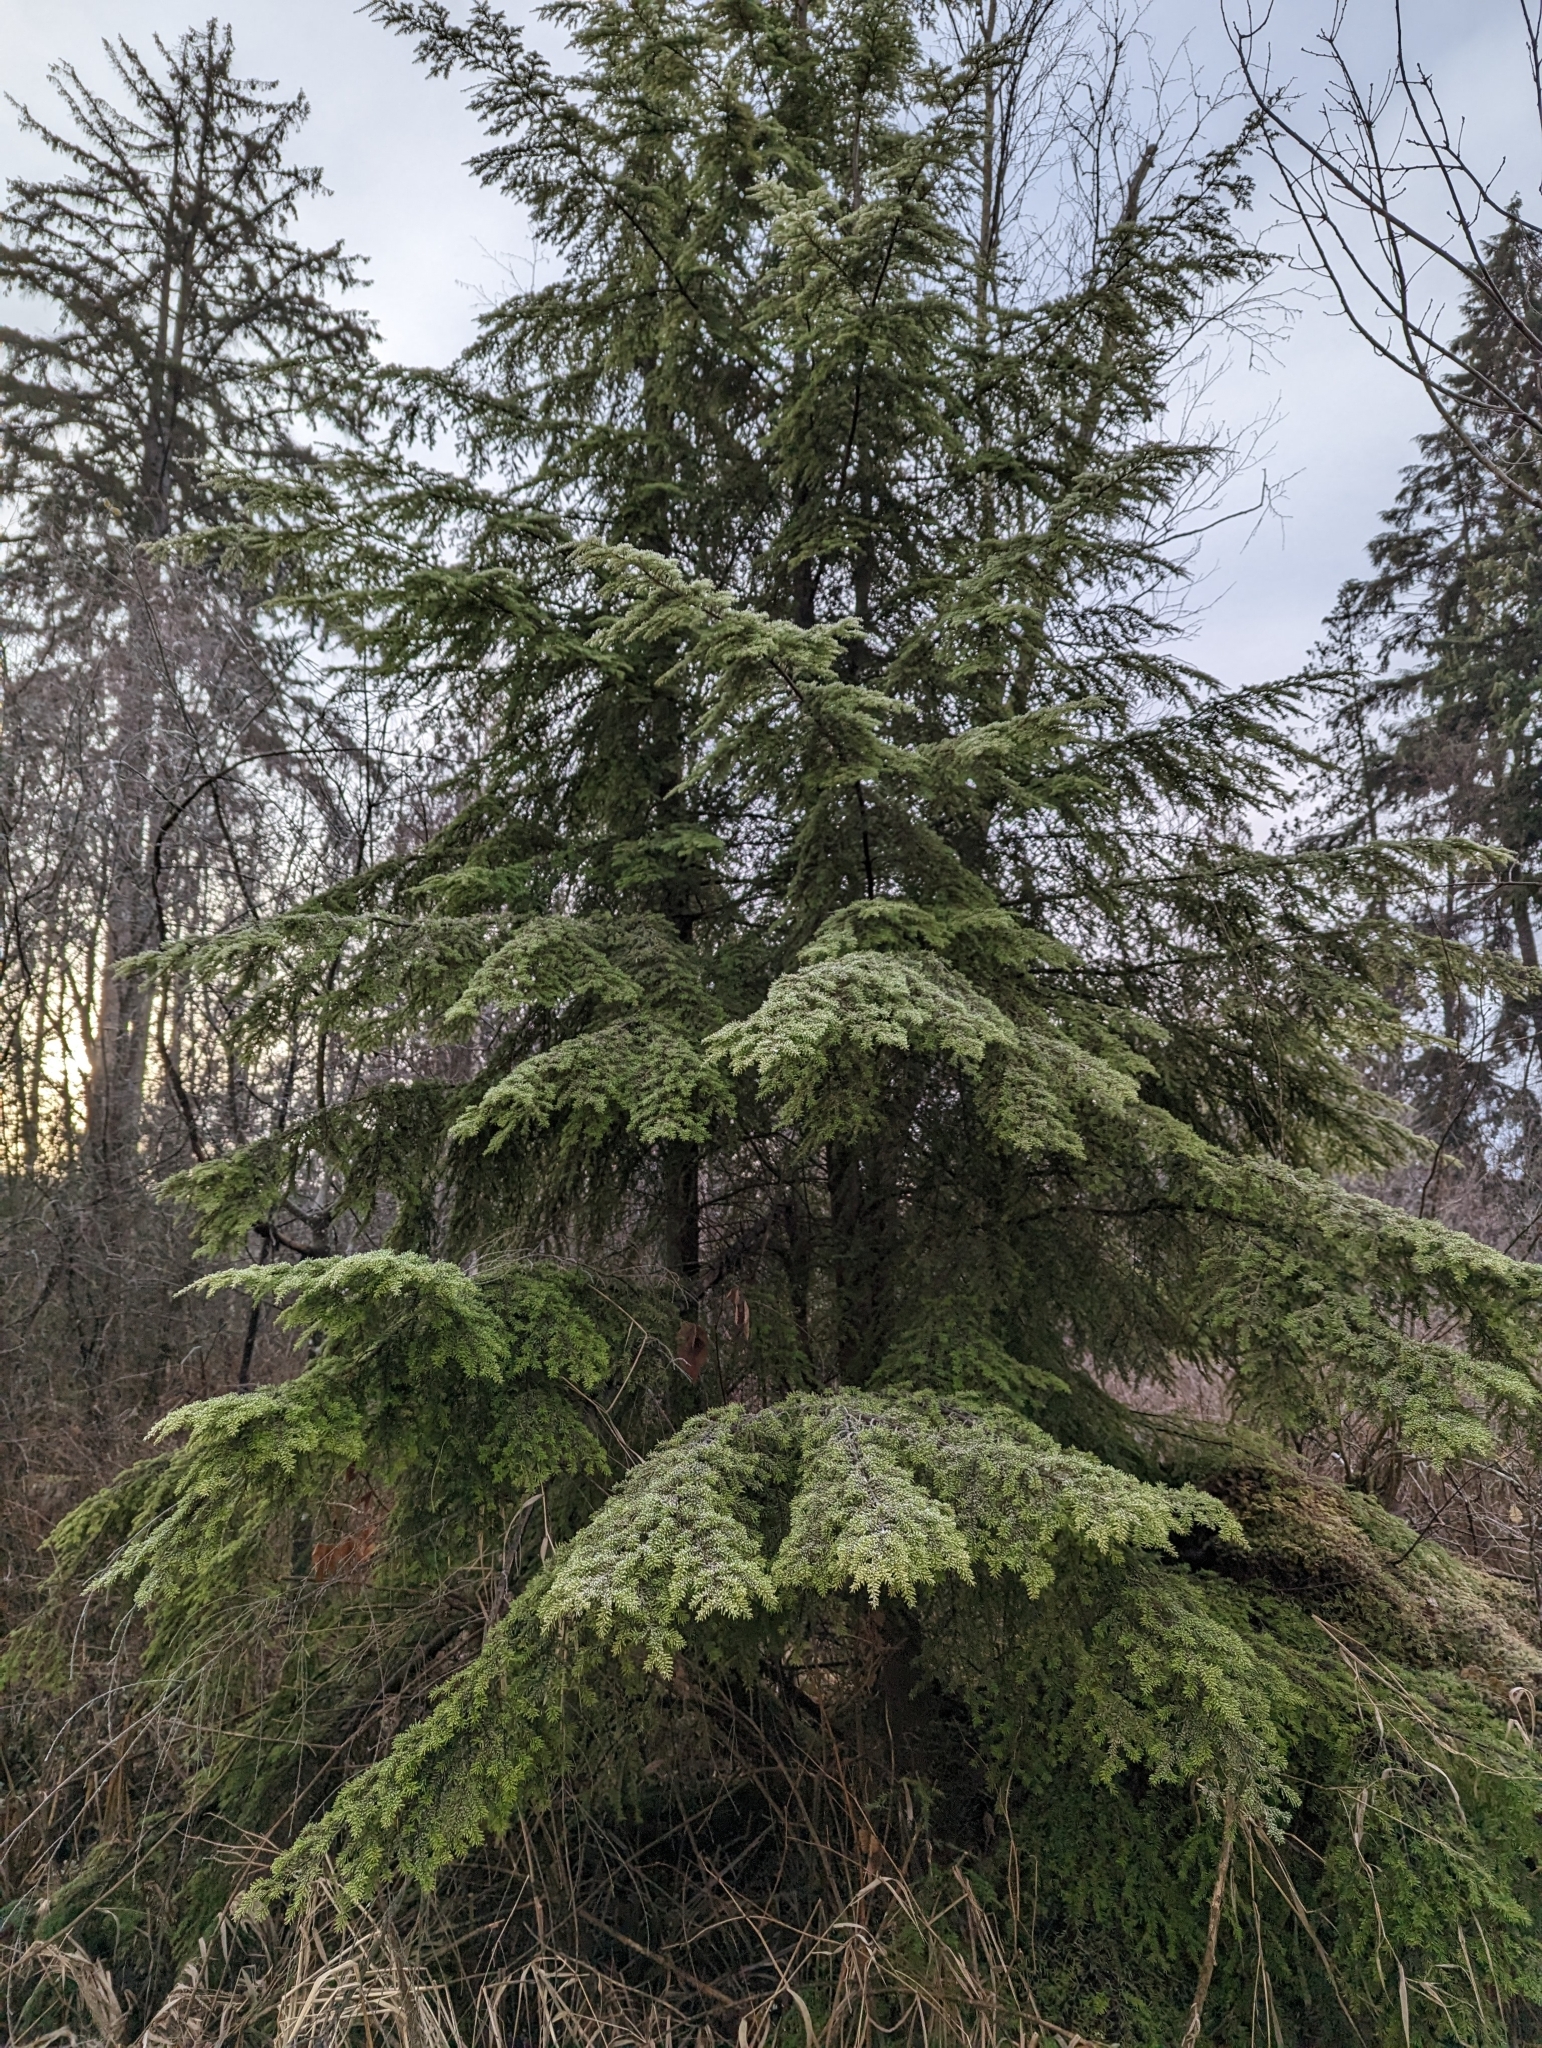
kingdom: Plantae
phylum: Tracheophyta
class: Pinopsida
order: Pinales
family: Pinaceae
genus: Tsuga
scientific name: Tsuga heterophylla
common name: Western hemlock
